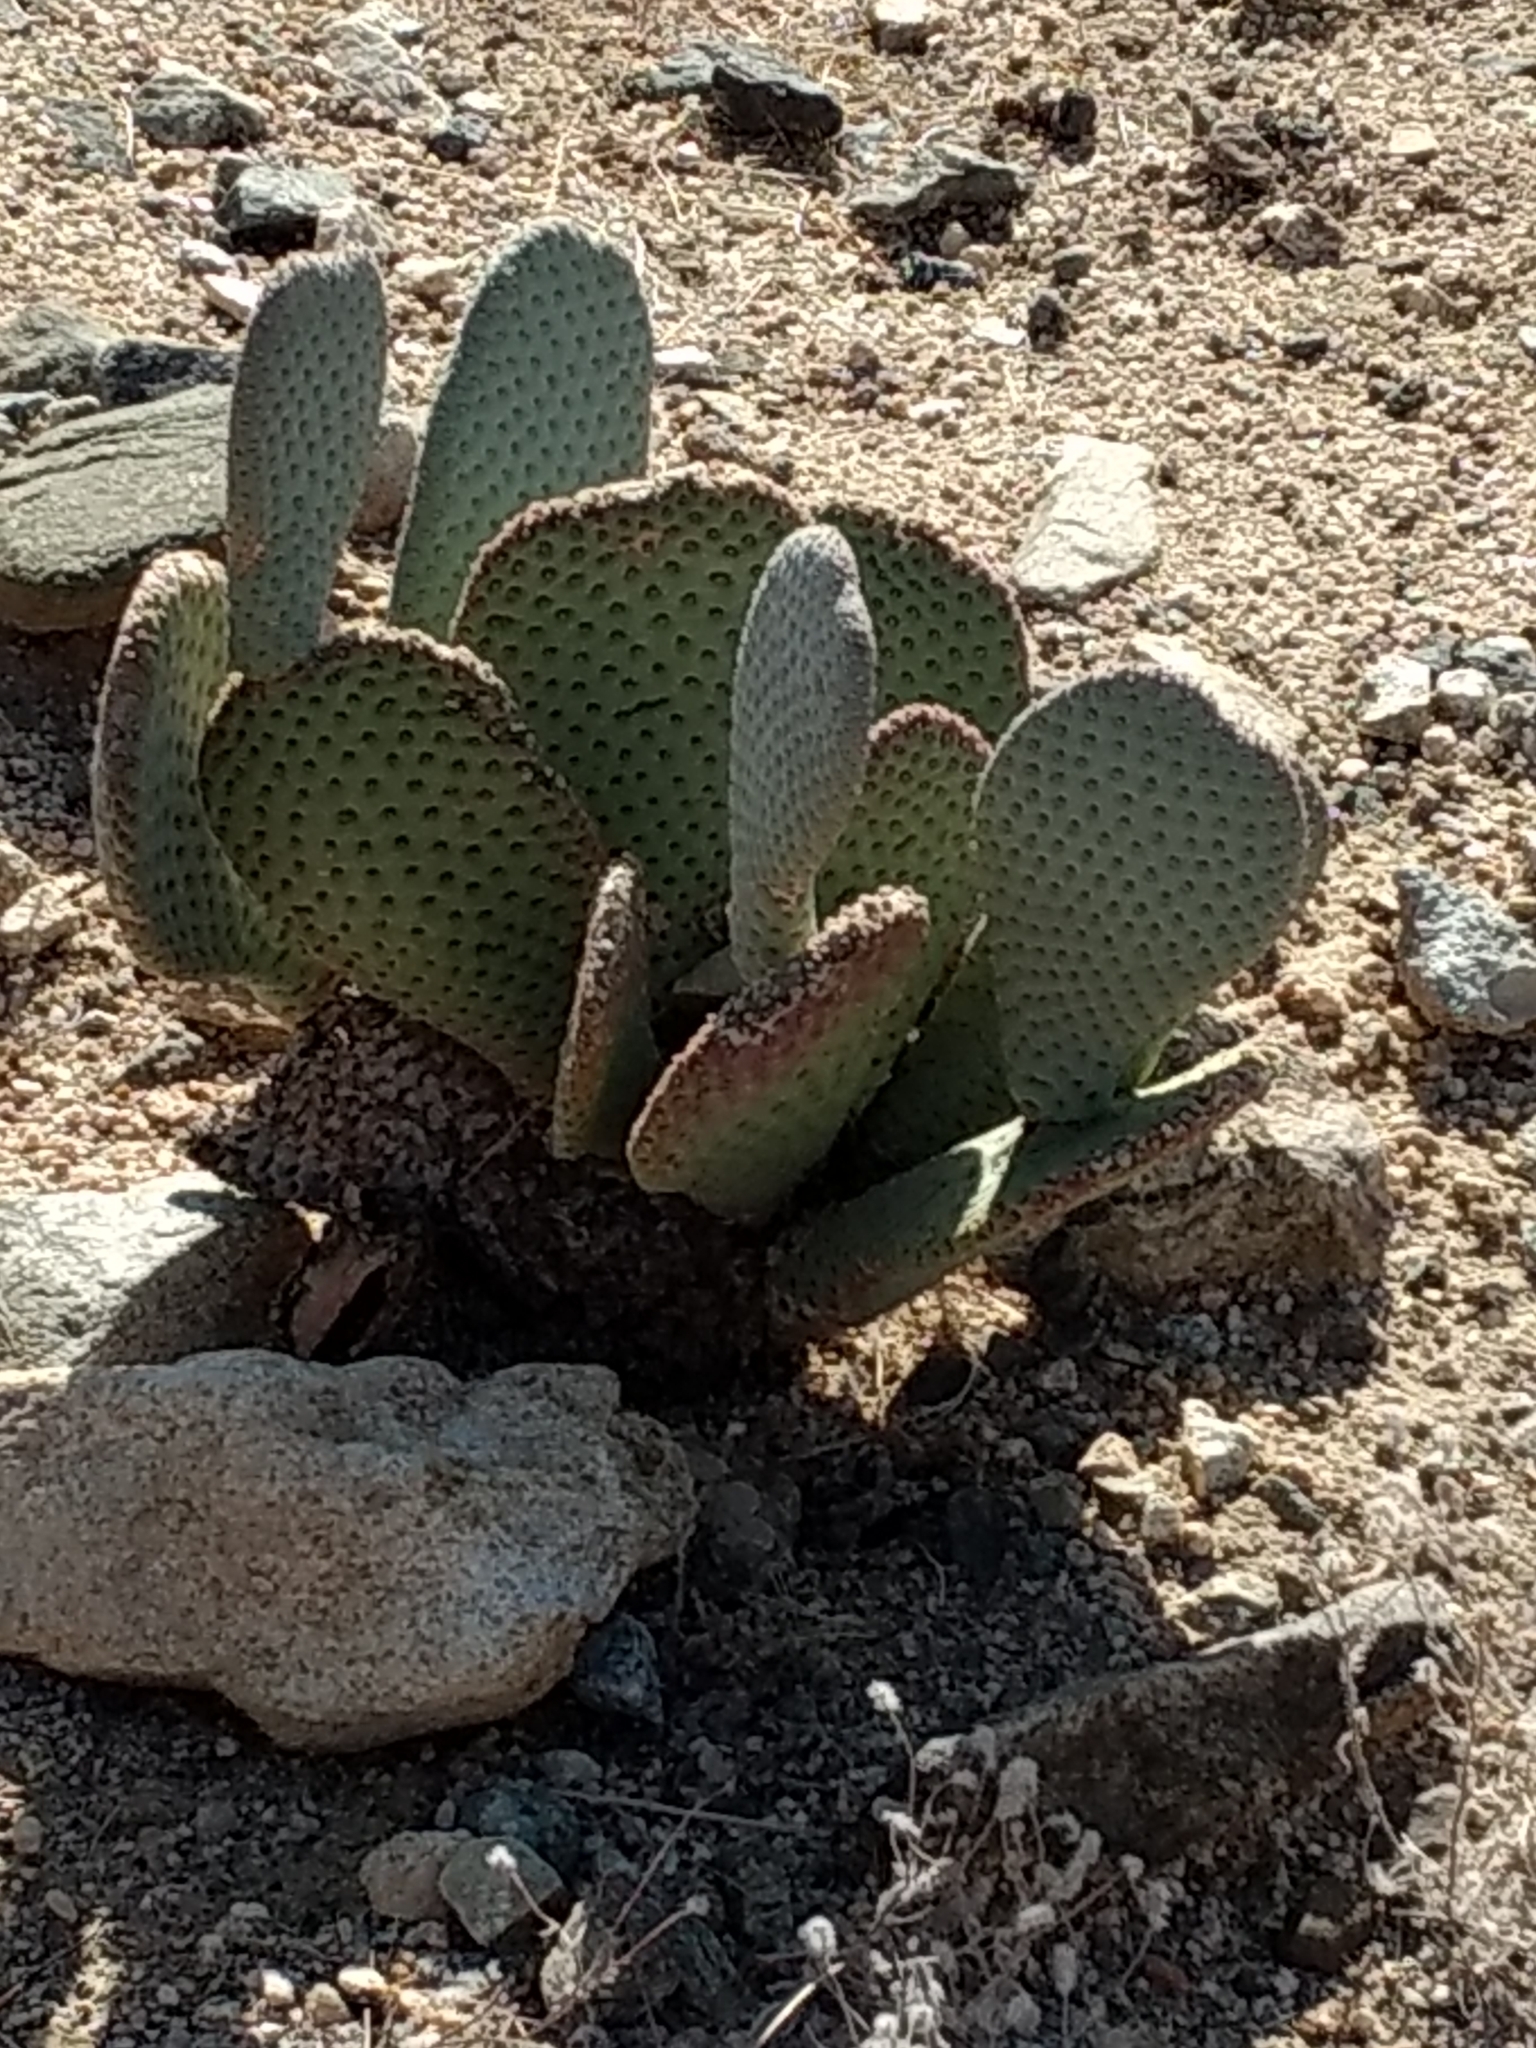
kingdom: Plantae
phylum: Tracheophyta
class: Magnoliopsida
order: Caryophyllales
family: Cactaceae
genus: Opuntia
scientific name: Opuntia basilaris
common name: Beavertail prickly-pear
